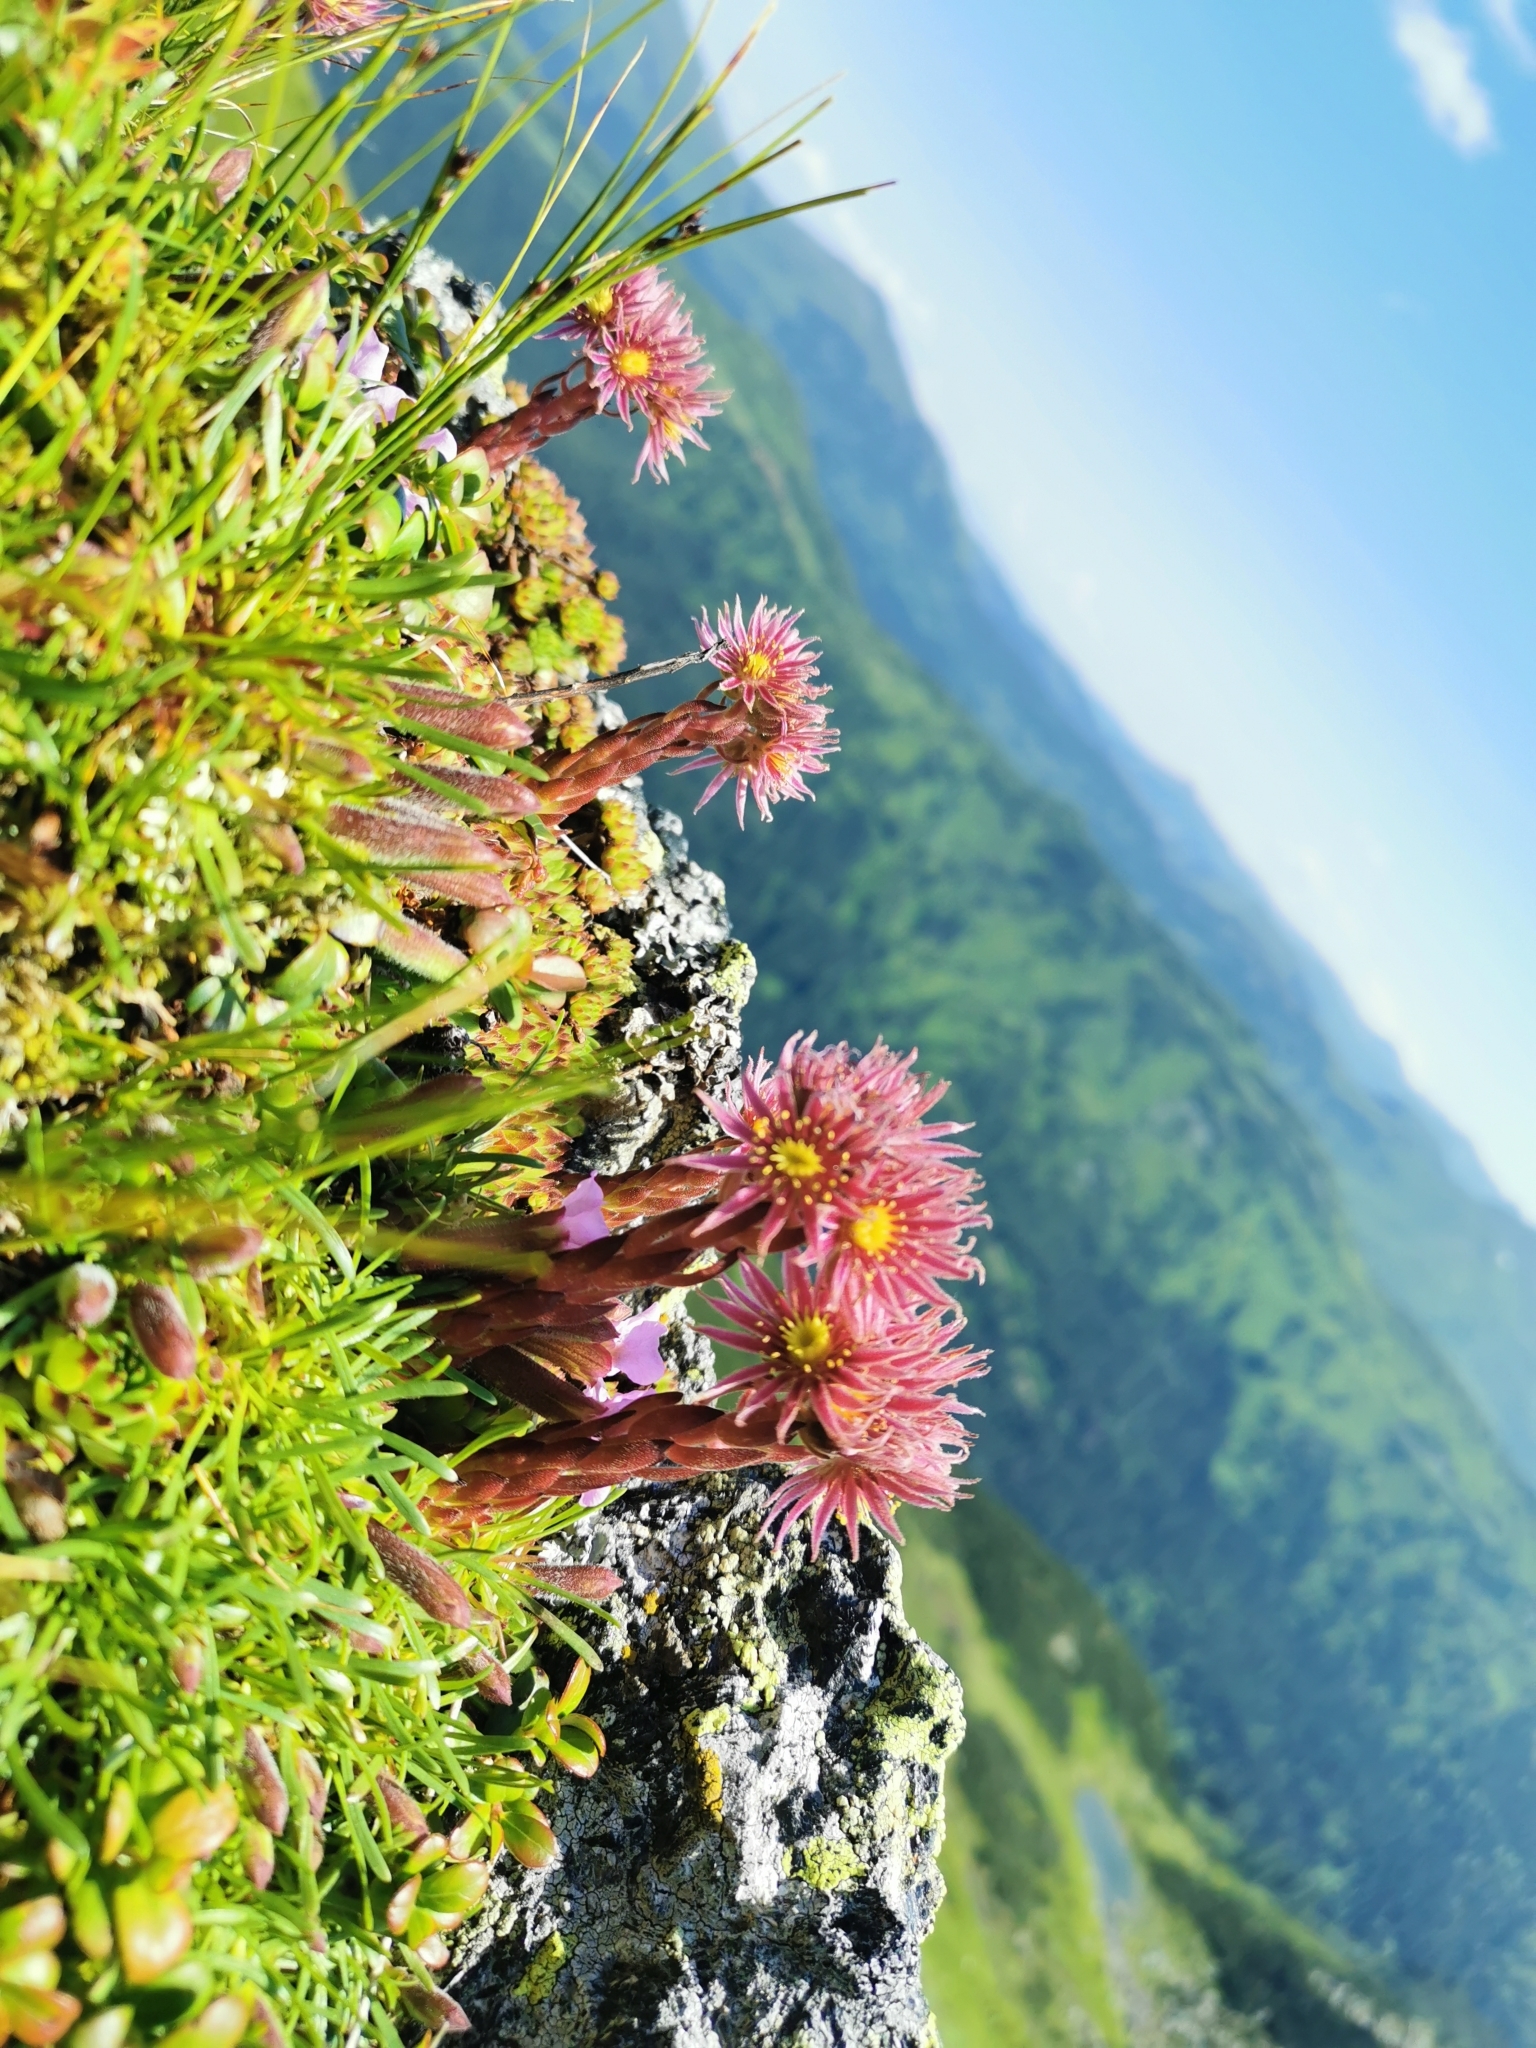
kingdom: Plantae
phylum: Tracheophyta
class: Magnoliopsida
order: Saxifragales
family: Crassulaceae
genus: Sempervivum
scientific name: Sempervivum montanum
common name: Mountain house-leek
